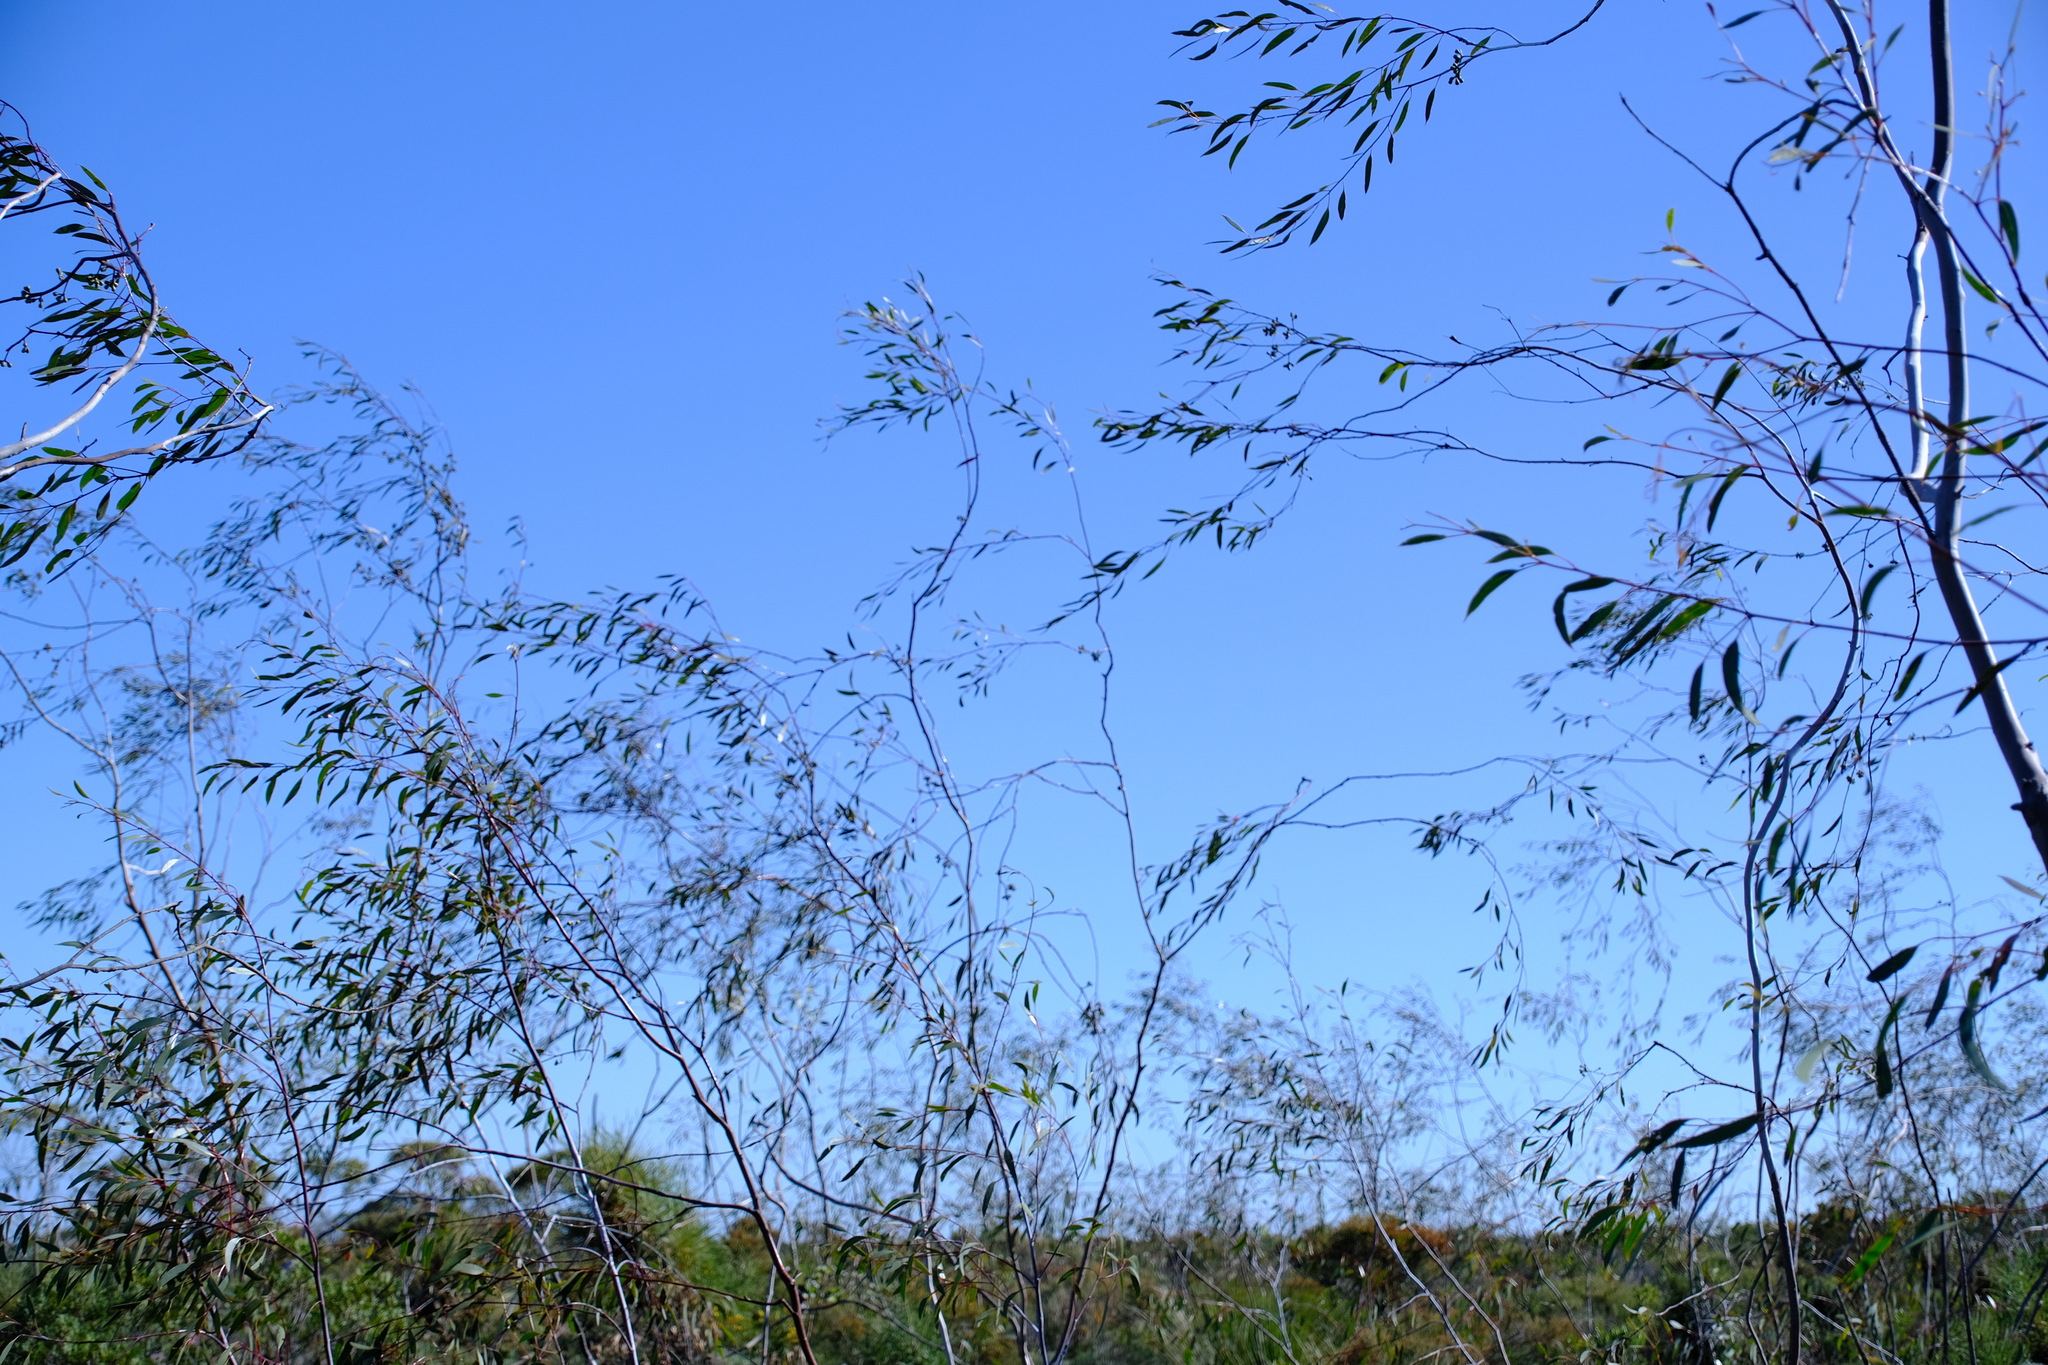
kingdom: Plantae
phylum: Tracheophyta
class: Magnoliopsida
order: Myrtales
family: Myrtaceae
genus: Eucalyptus
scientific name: Eucalyptus pendens
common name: Badgingarra mallee
